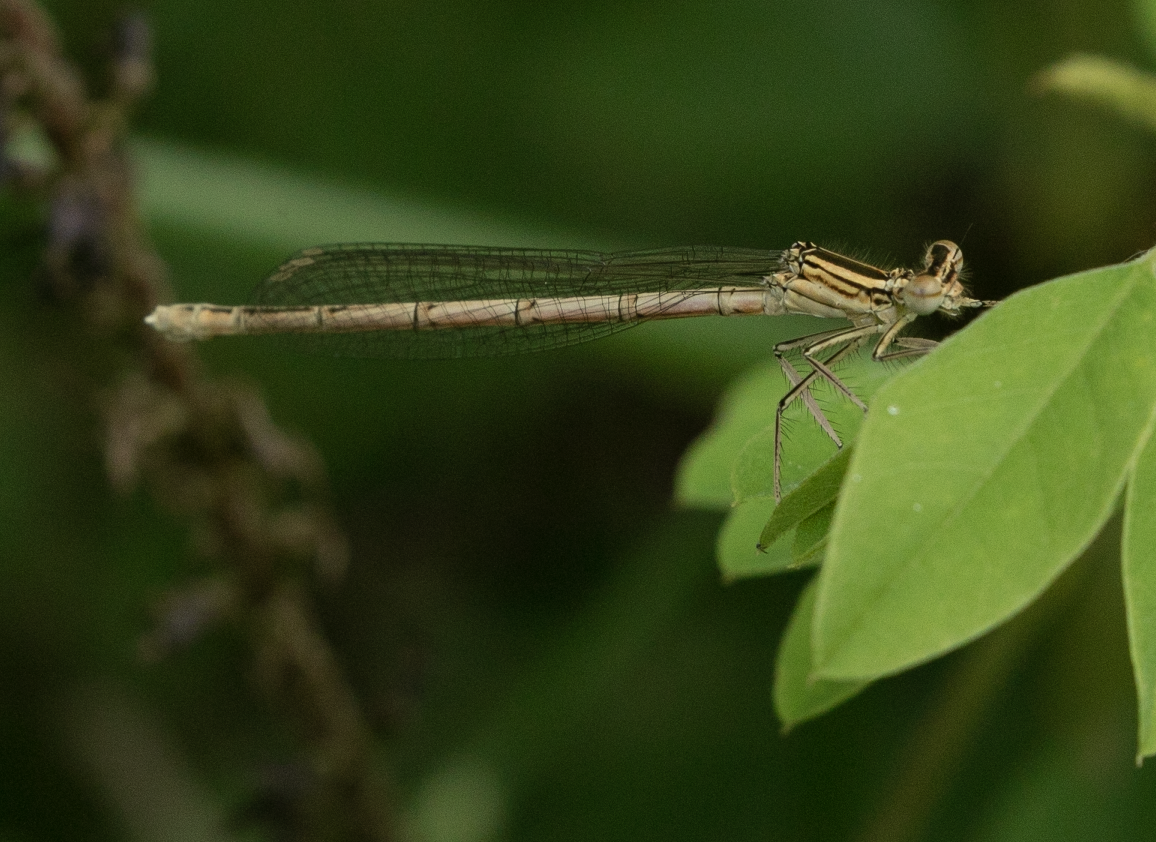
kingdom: Animalia
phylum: Arthropoda
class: Insecta
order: Odonata
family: Platycnemididae
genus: Platycnemis
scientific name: Platycnemis pennipes
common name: White-legged damselfly
